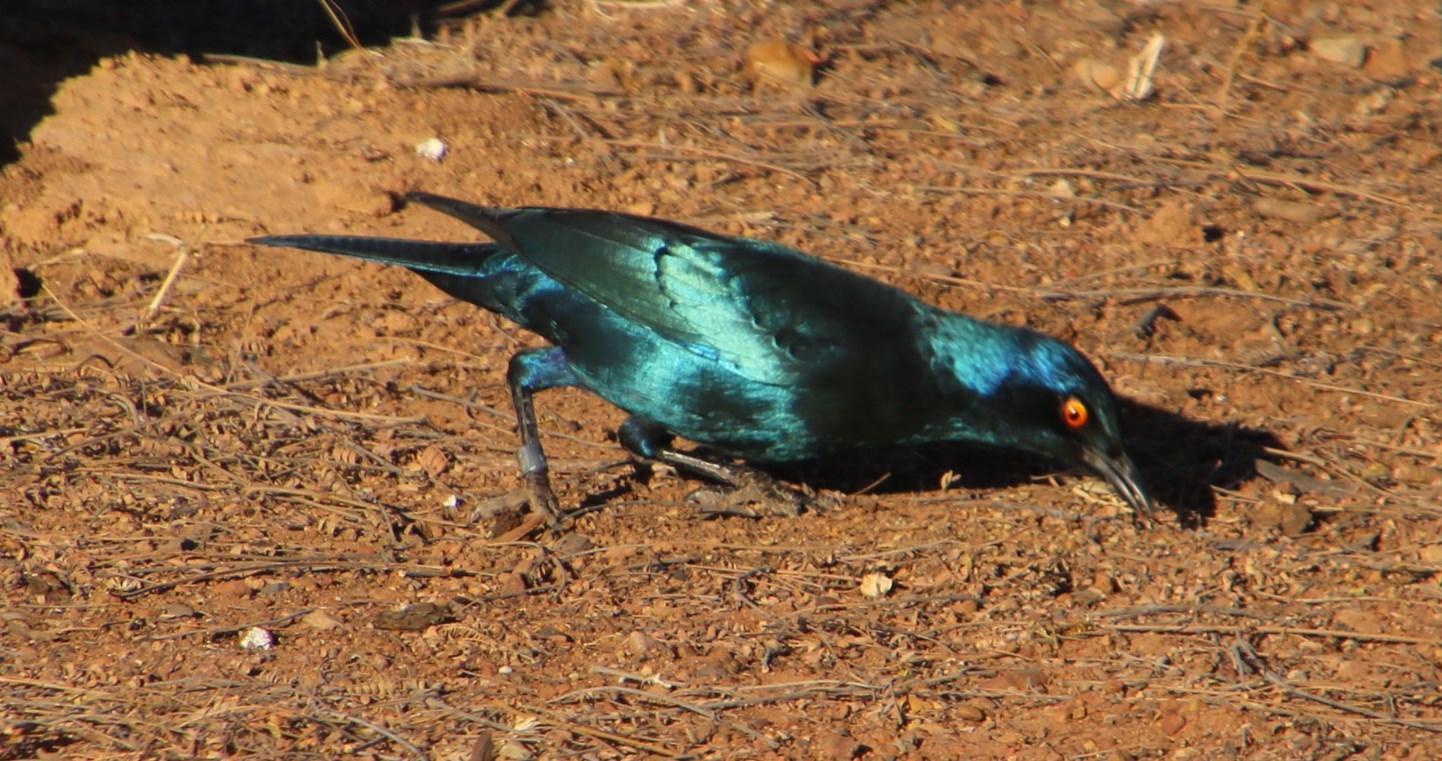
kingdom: Animalia
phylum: Chordata
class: Aves
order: Passeriformes
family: Sturnidae
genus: Lamprotornis
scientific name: Lamprotornis nitens
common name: Cape starling
